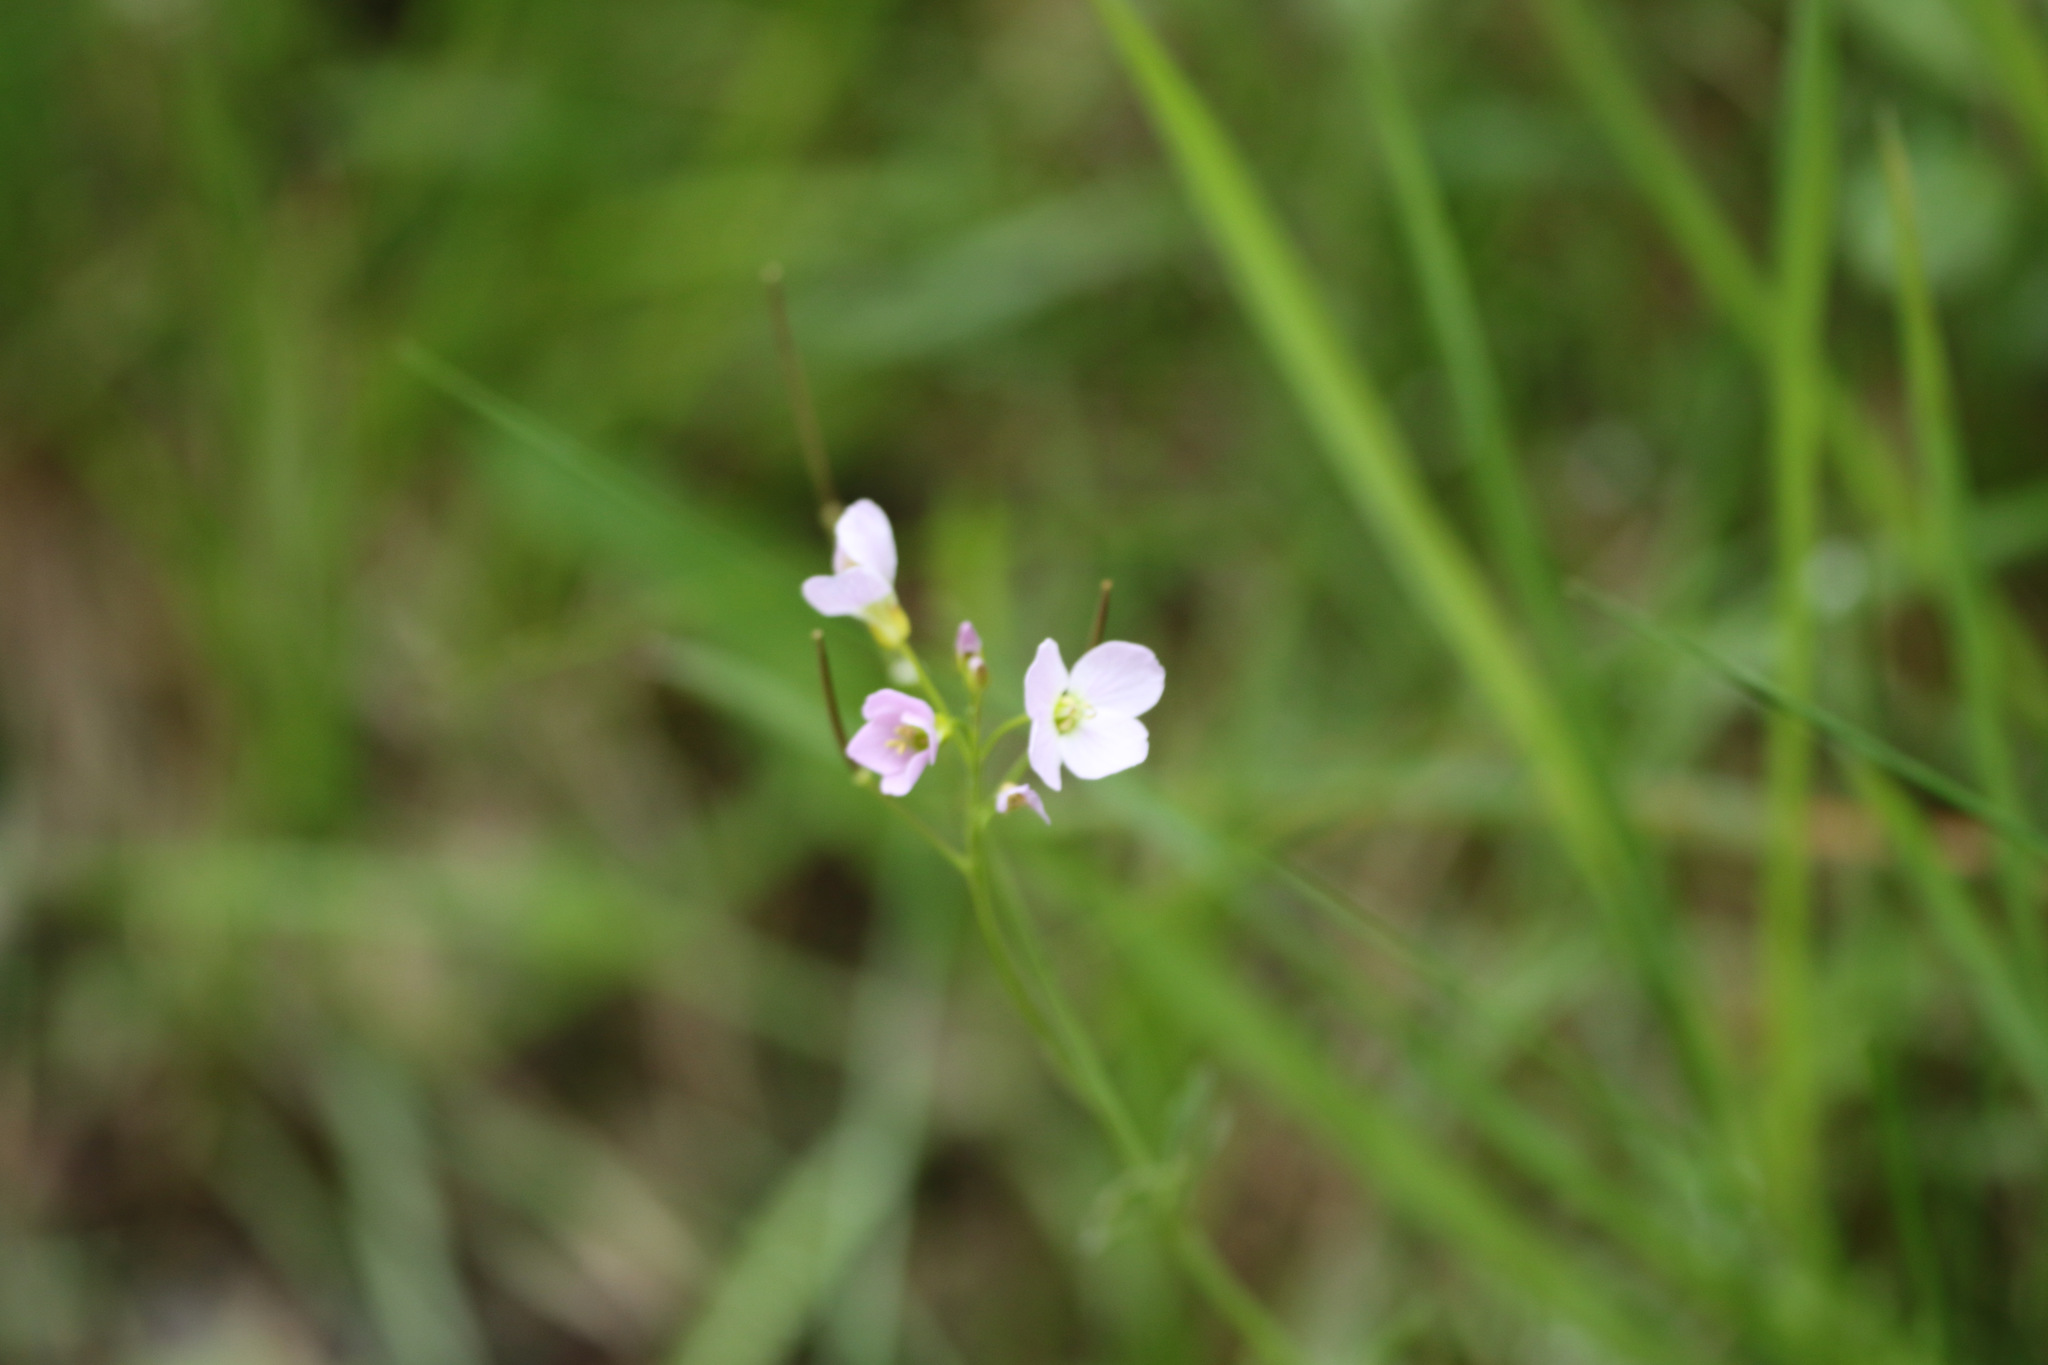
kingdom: Plantae
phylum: Tracheophyta
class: Magnoliopsida
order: Brassicales
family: Brassicaceae
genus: Cardamine
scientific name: Cardamine pratensis
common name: Cuckoo flower
